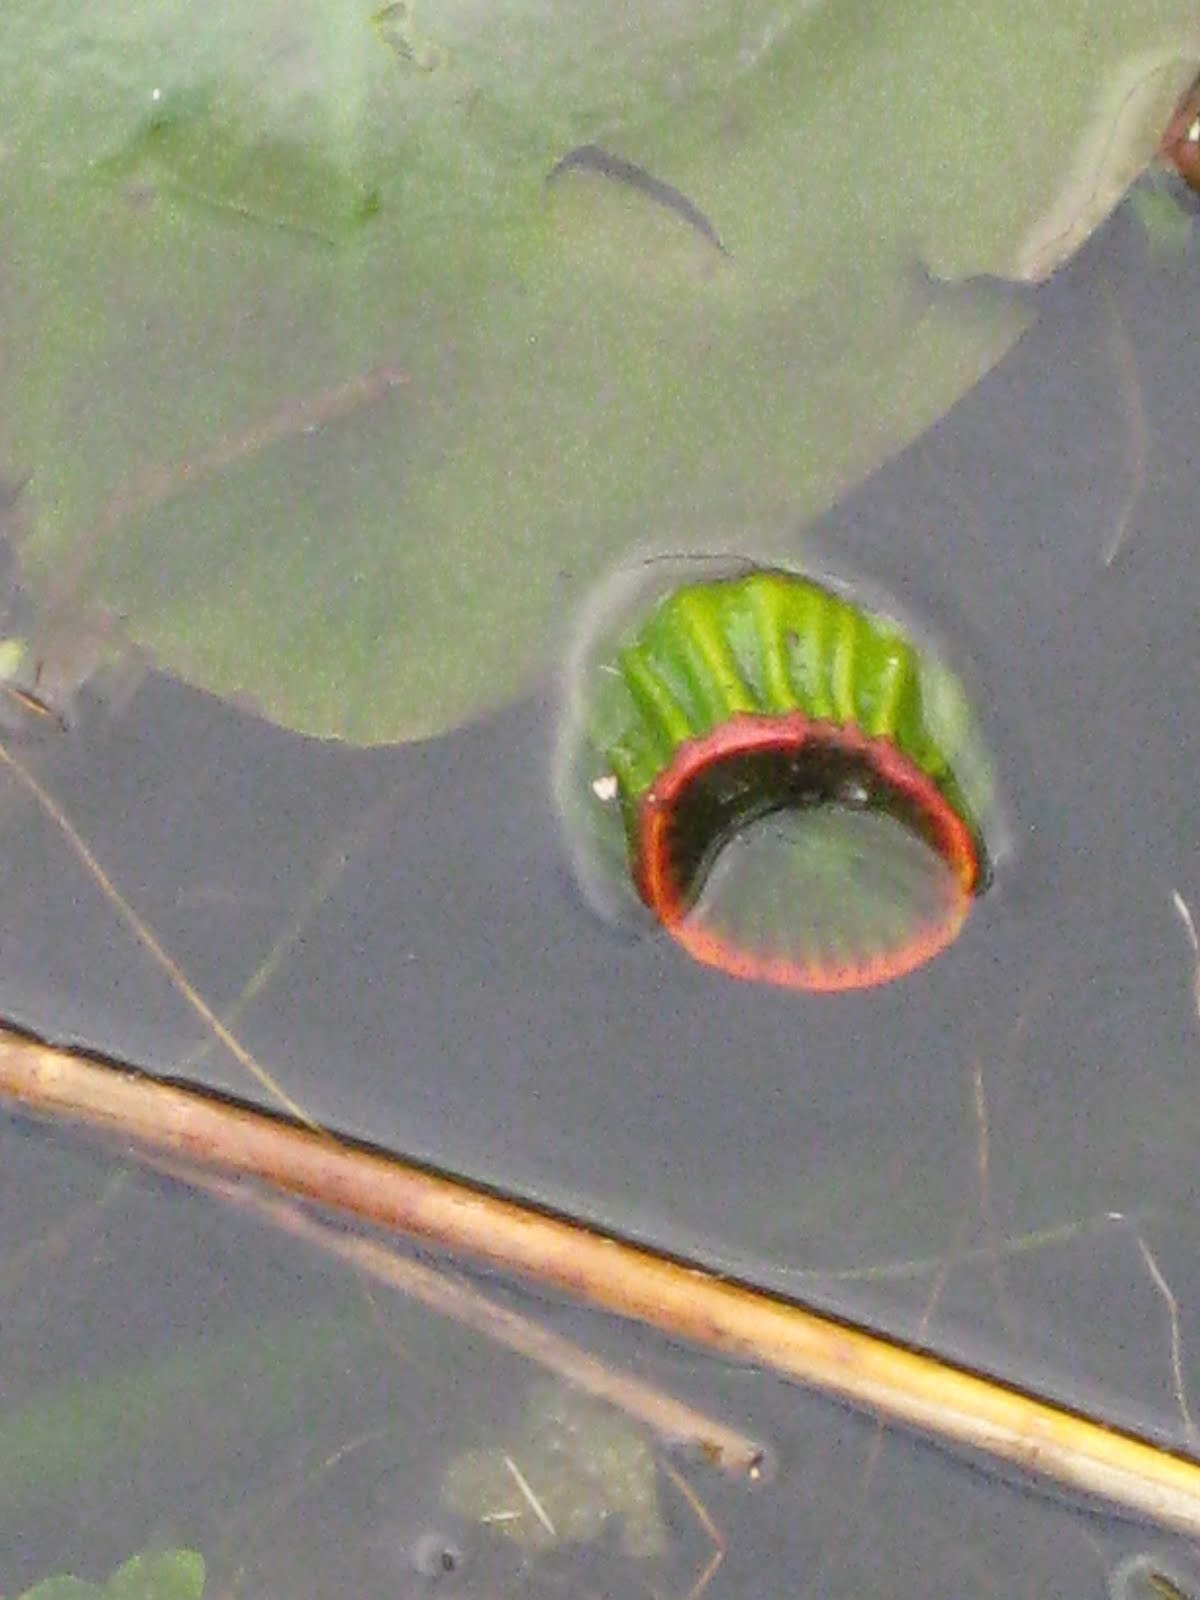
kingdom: Plantae
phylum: Tracheophyta
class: Magnoliopsida
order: Nymphaeales
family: Nymphaeaceae
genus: Nuphar
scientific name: Nuphar advena
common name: Spatter-dock
